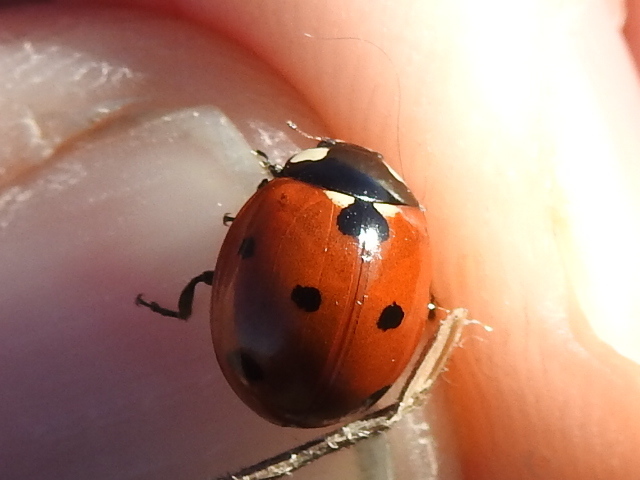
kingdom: Animalia
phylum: Arthropoda
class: Insecta
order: Coleoptera
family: Coccinellidae
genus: Coccinella
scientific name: Coccinella septempunctata
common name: Sevenspotted lady beetle
